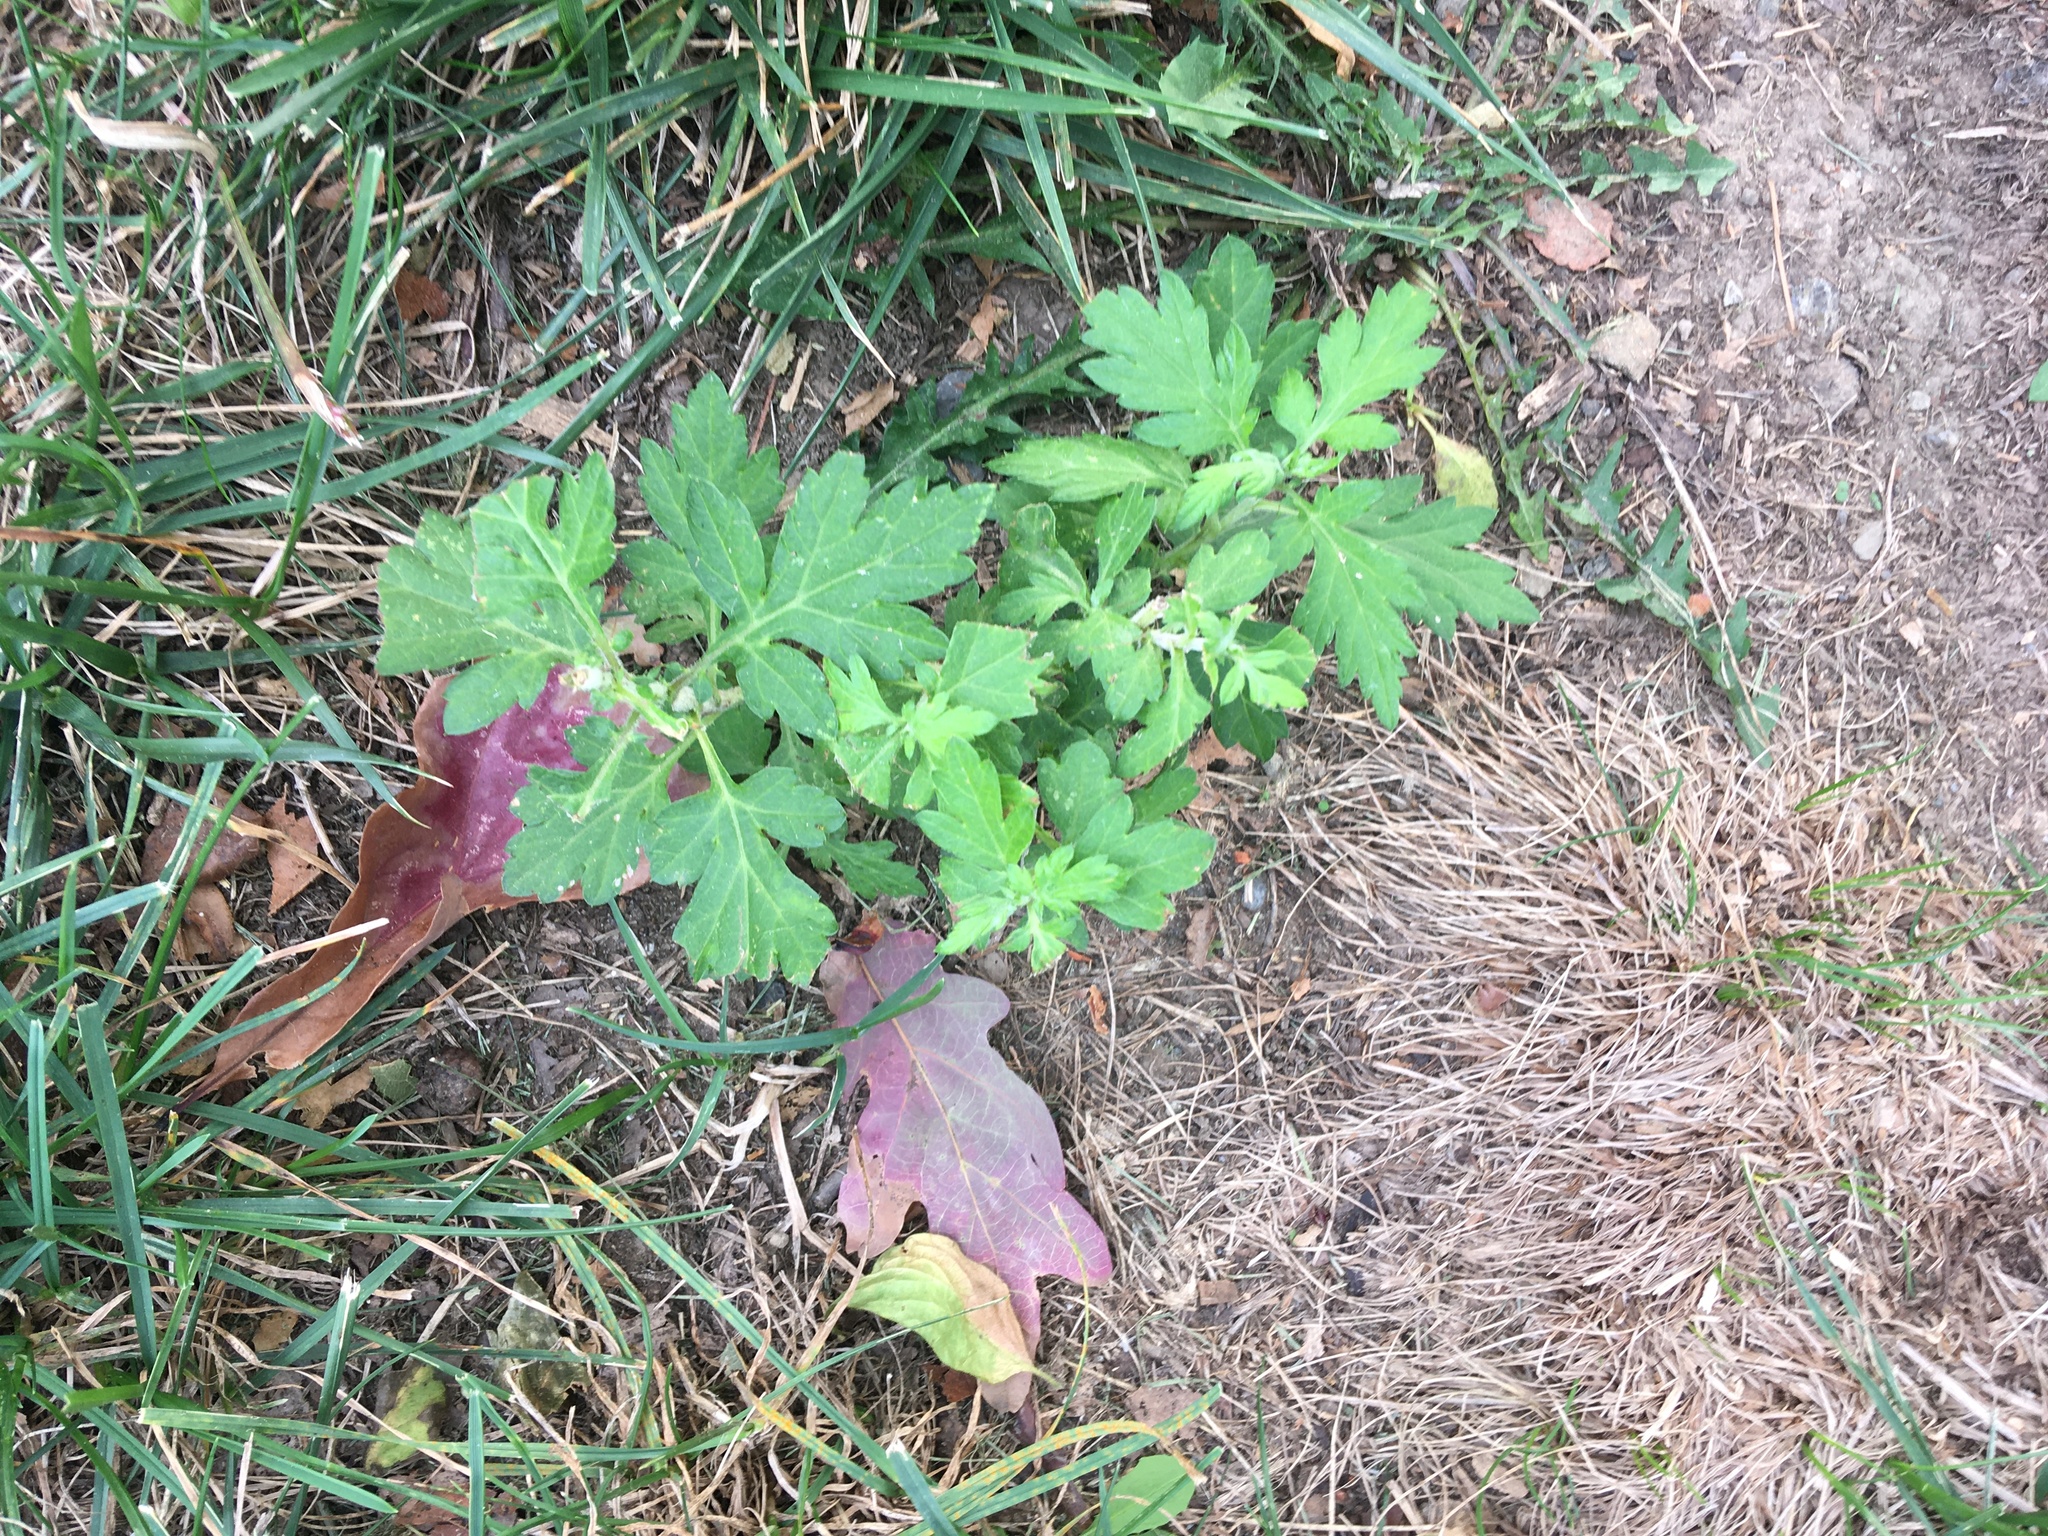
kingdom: Plantae
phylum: Tracheophyta
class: Magnoliopsida
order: Asterales
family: Asteraceae
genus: Artemisia
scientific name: Artemisia vulgaris
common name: Mugwort
